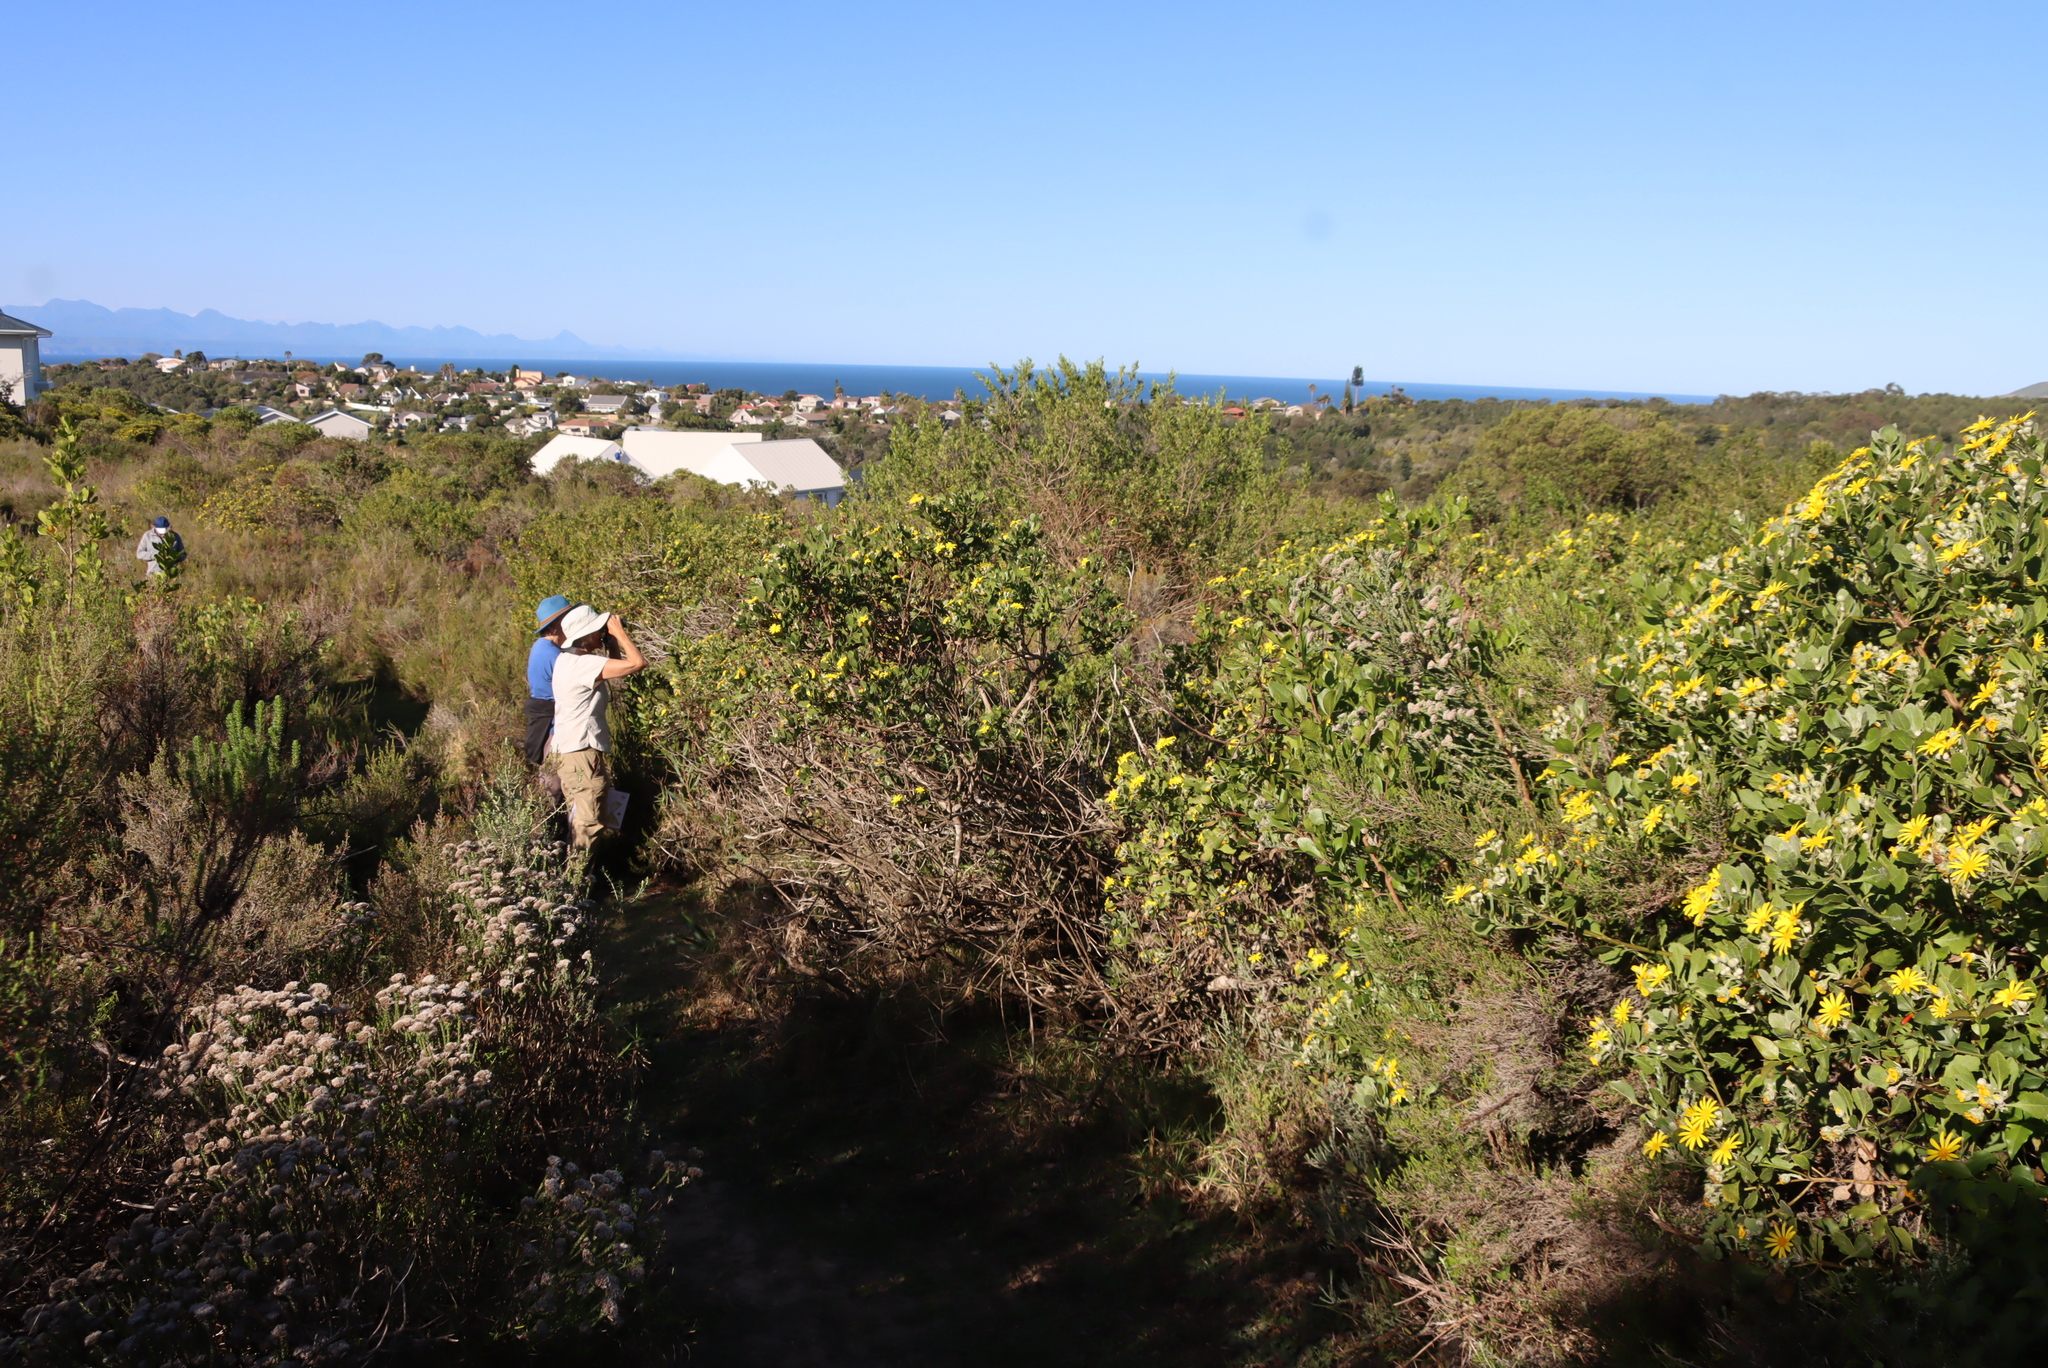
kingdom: Plantae
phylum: Tracheophyta
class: Magnoliopsida
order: Asterales
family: Asteraceae
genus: Osteospermum
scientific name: Osteospermum moniliferum
